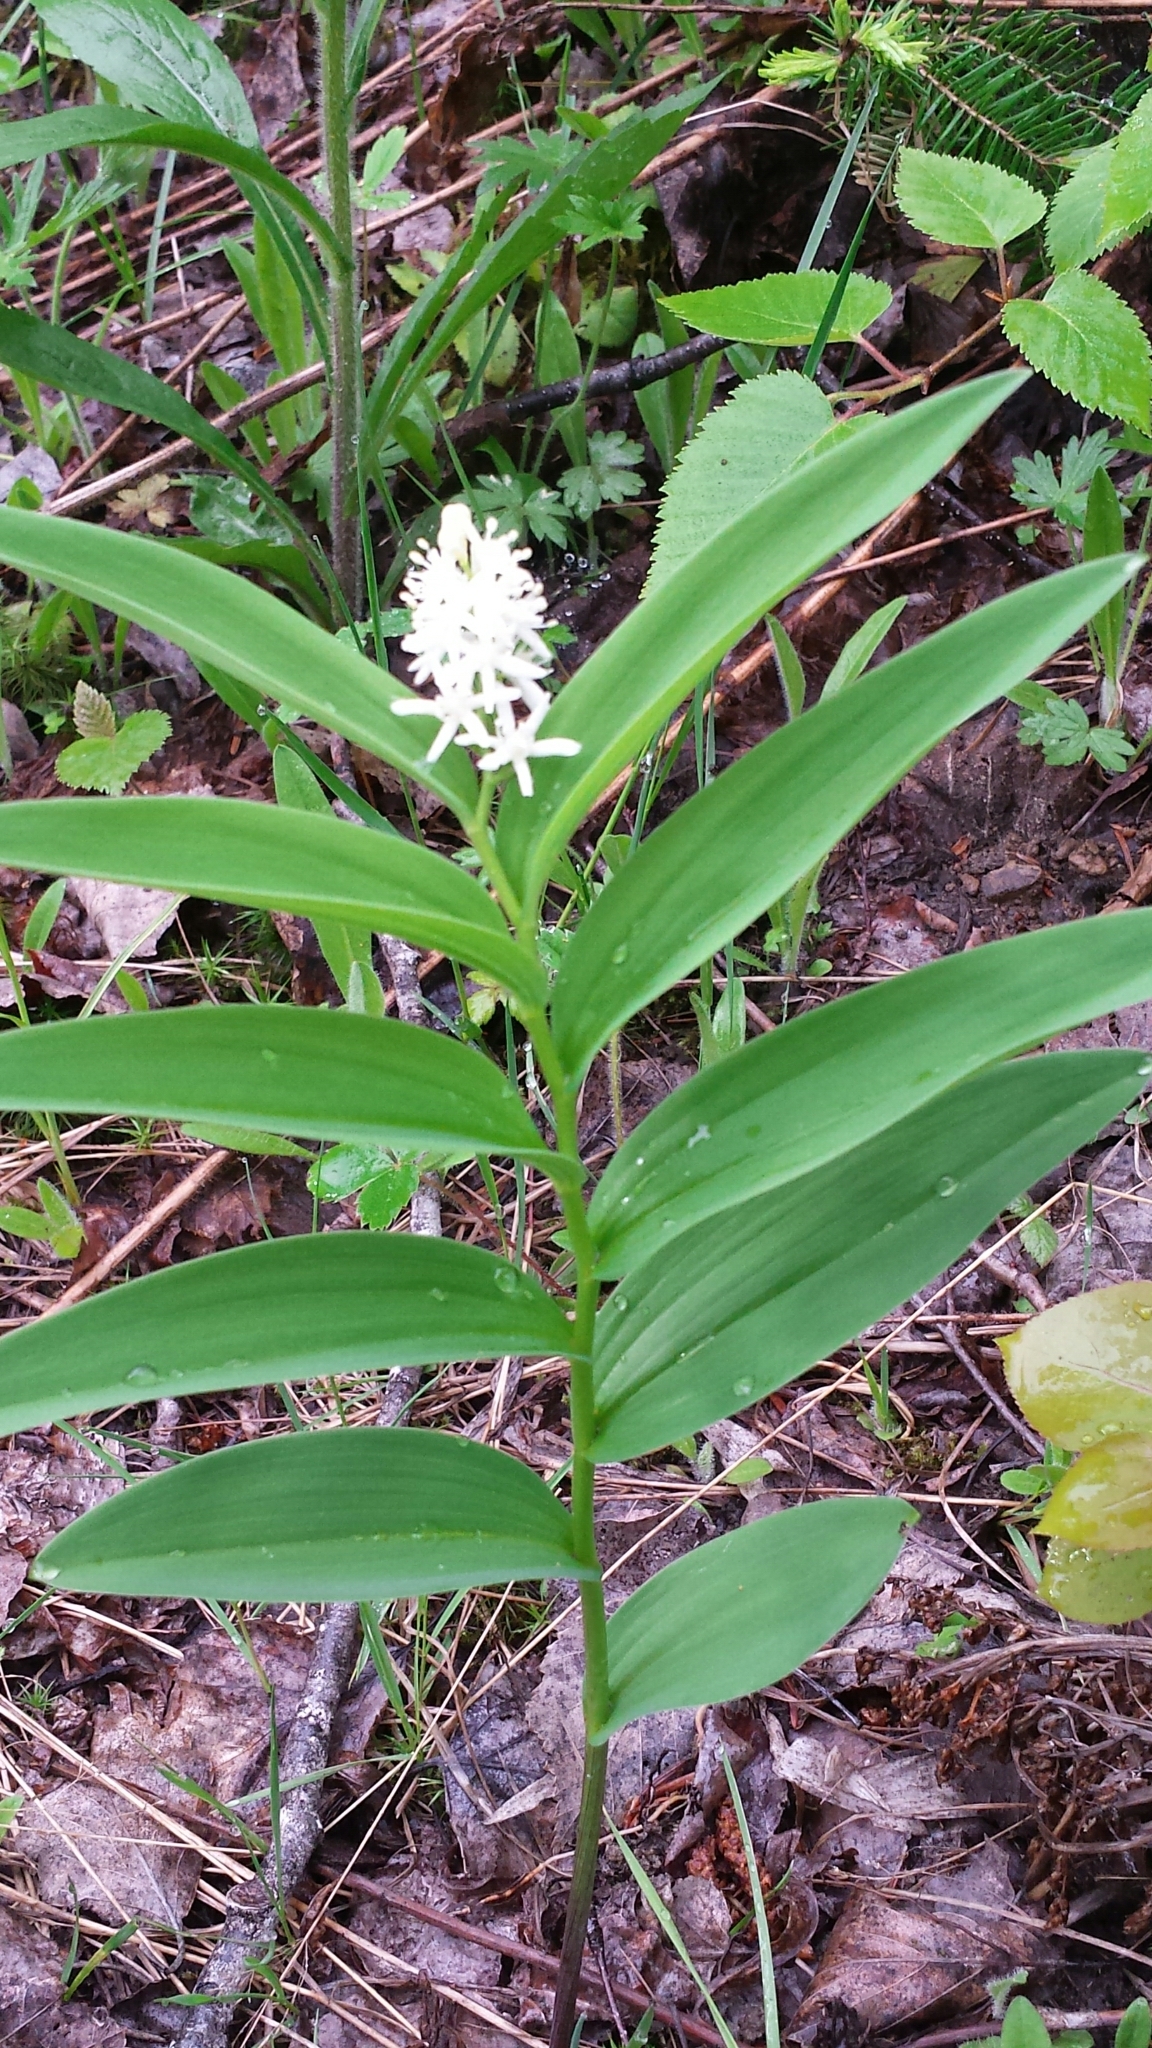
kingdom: Plantae
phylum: Tracheophyta
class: Liliopsida
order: Asparagales
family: Asparagaceae
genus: Maianthemum
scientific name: Maianthemum stellatum
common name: Little false solomon's seal
